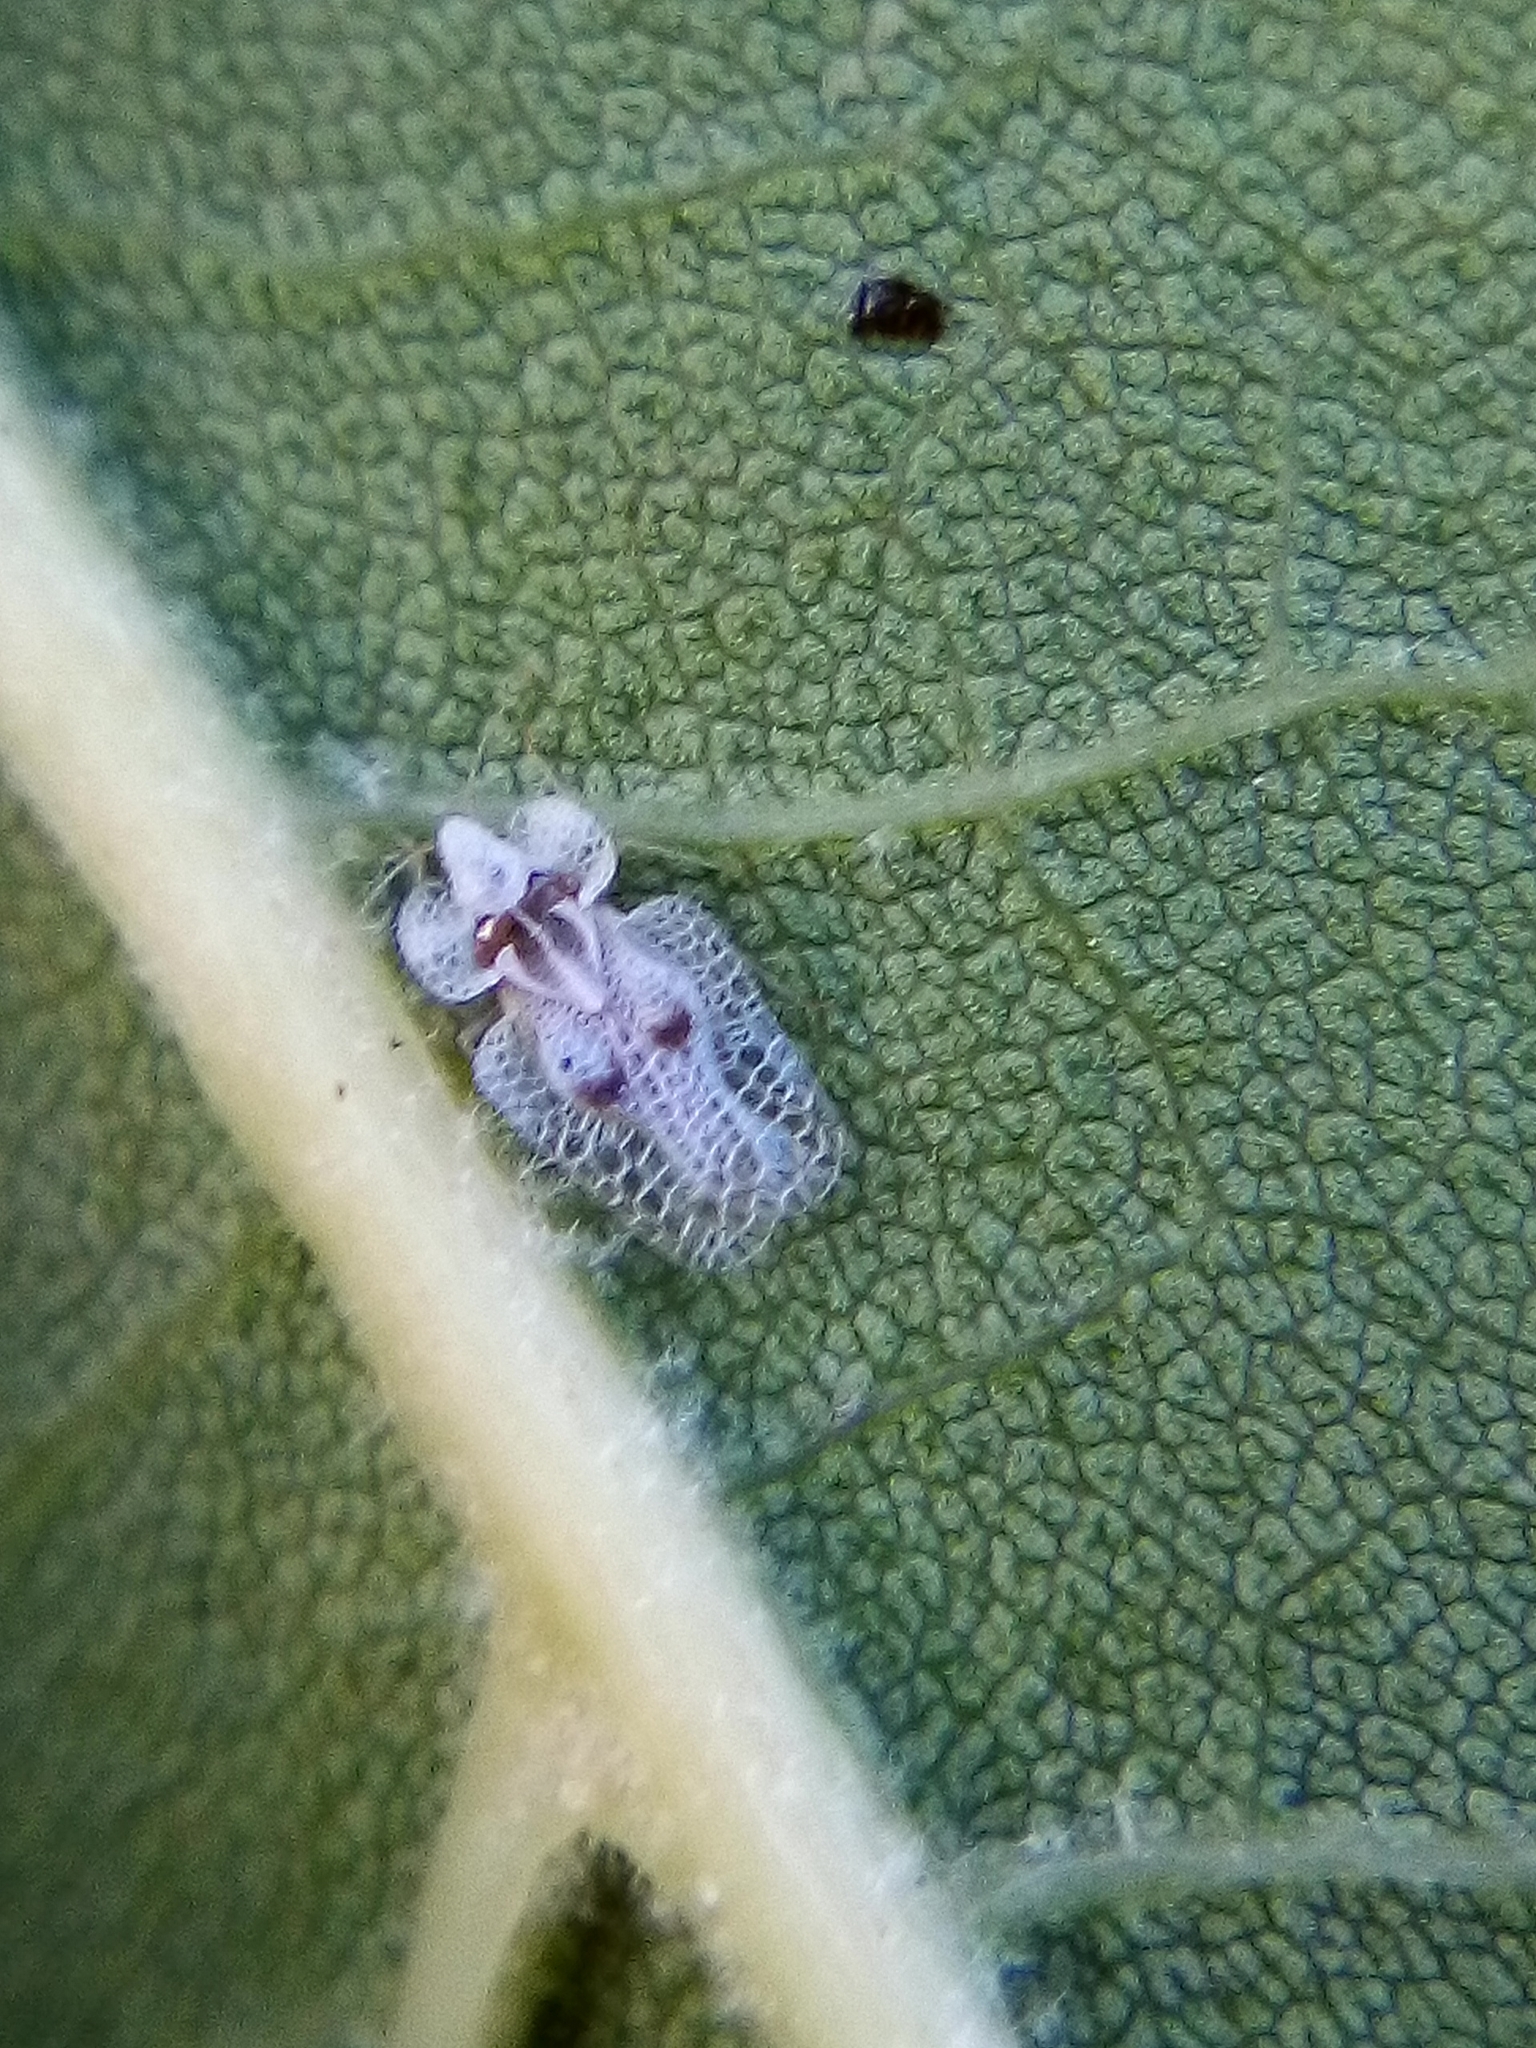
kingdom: Animalia
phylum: Arthropoda
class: Insecta
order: Hemiptera
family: Tingidae
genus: Corythucha
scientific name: Corythucha ciliata
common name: Sycamore lace bug
